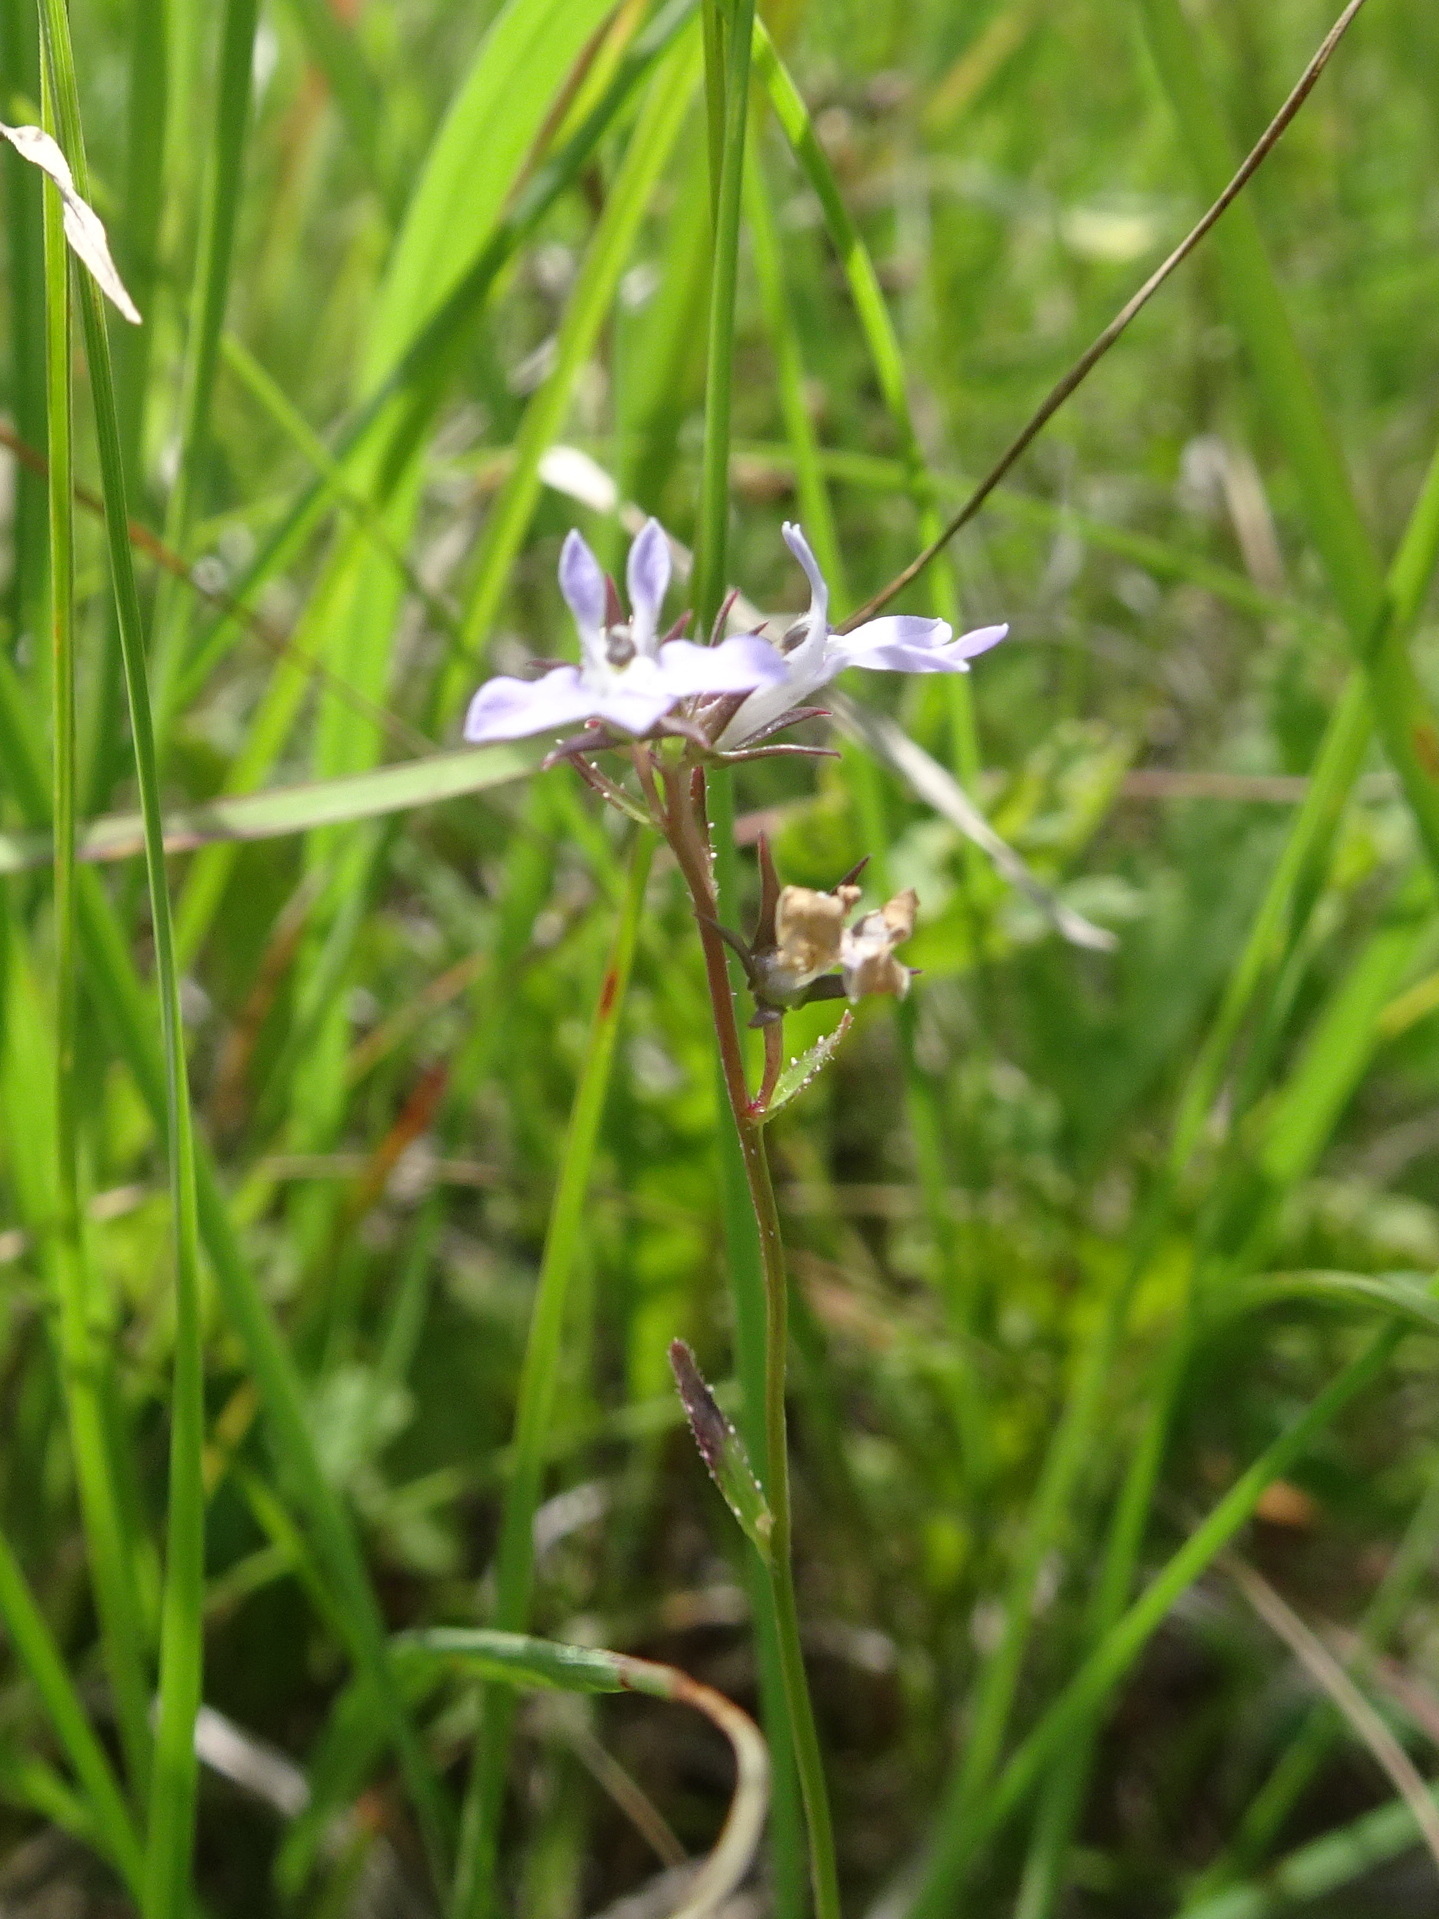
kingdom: Plantae
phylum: Tracheophyta
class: Magnoliopsida
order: Asterales
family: Campanulaceae
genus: Lobelia
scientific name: Lobelia spicata
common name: Pale-spike lobelia
